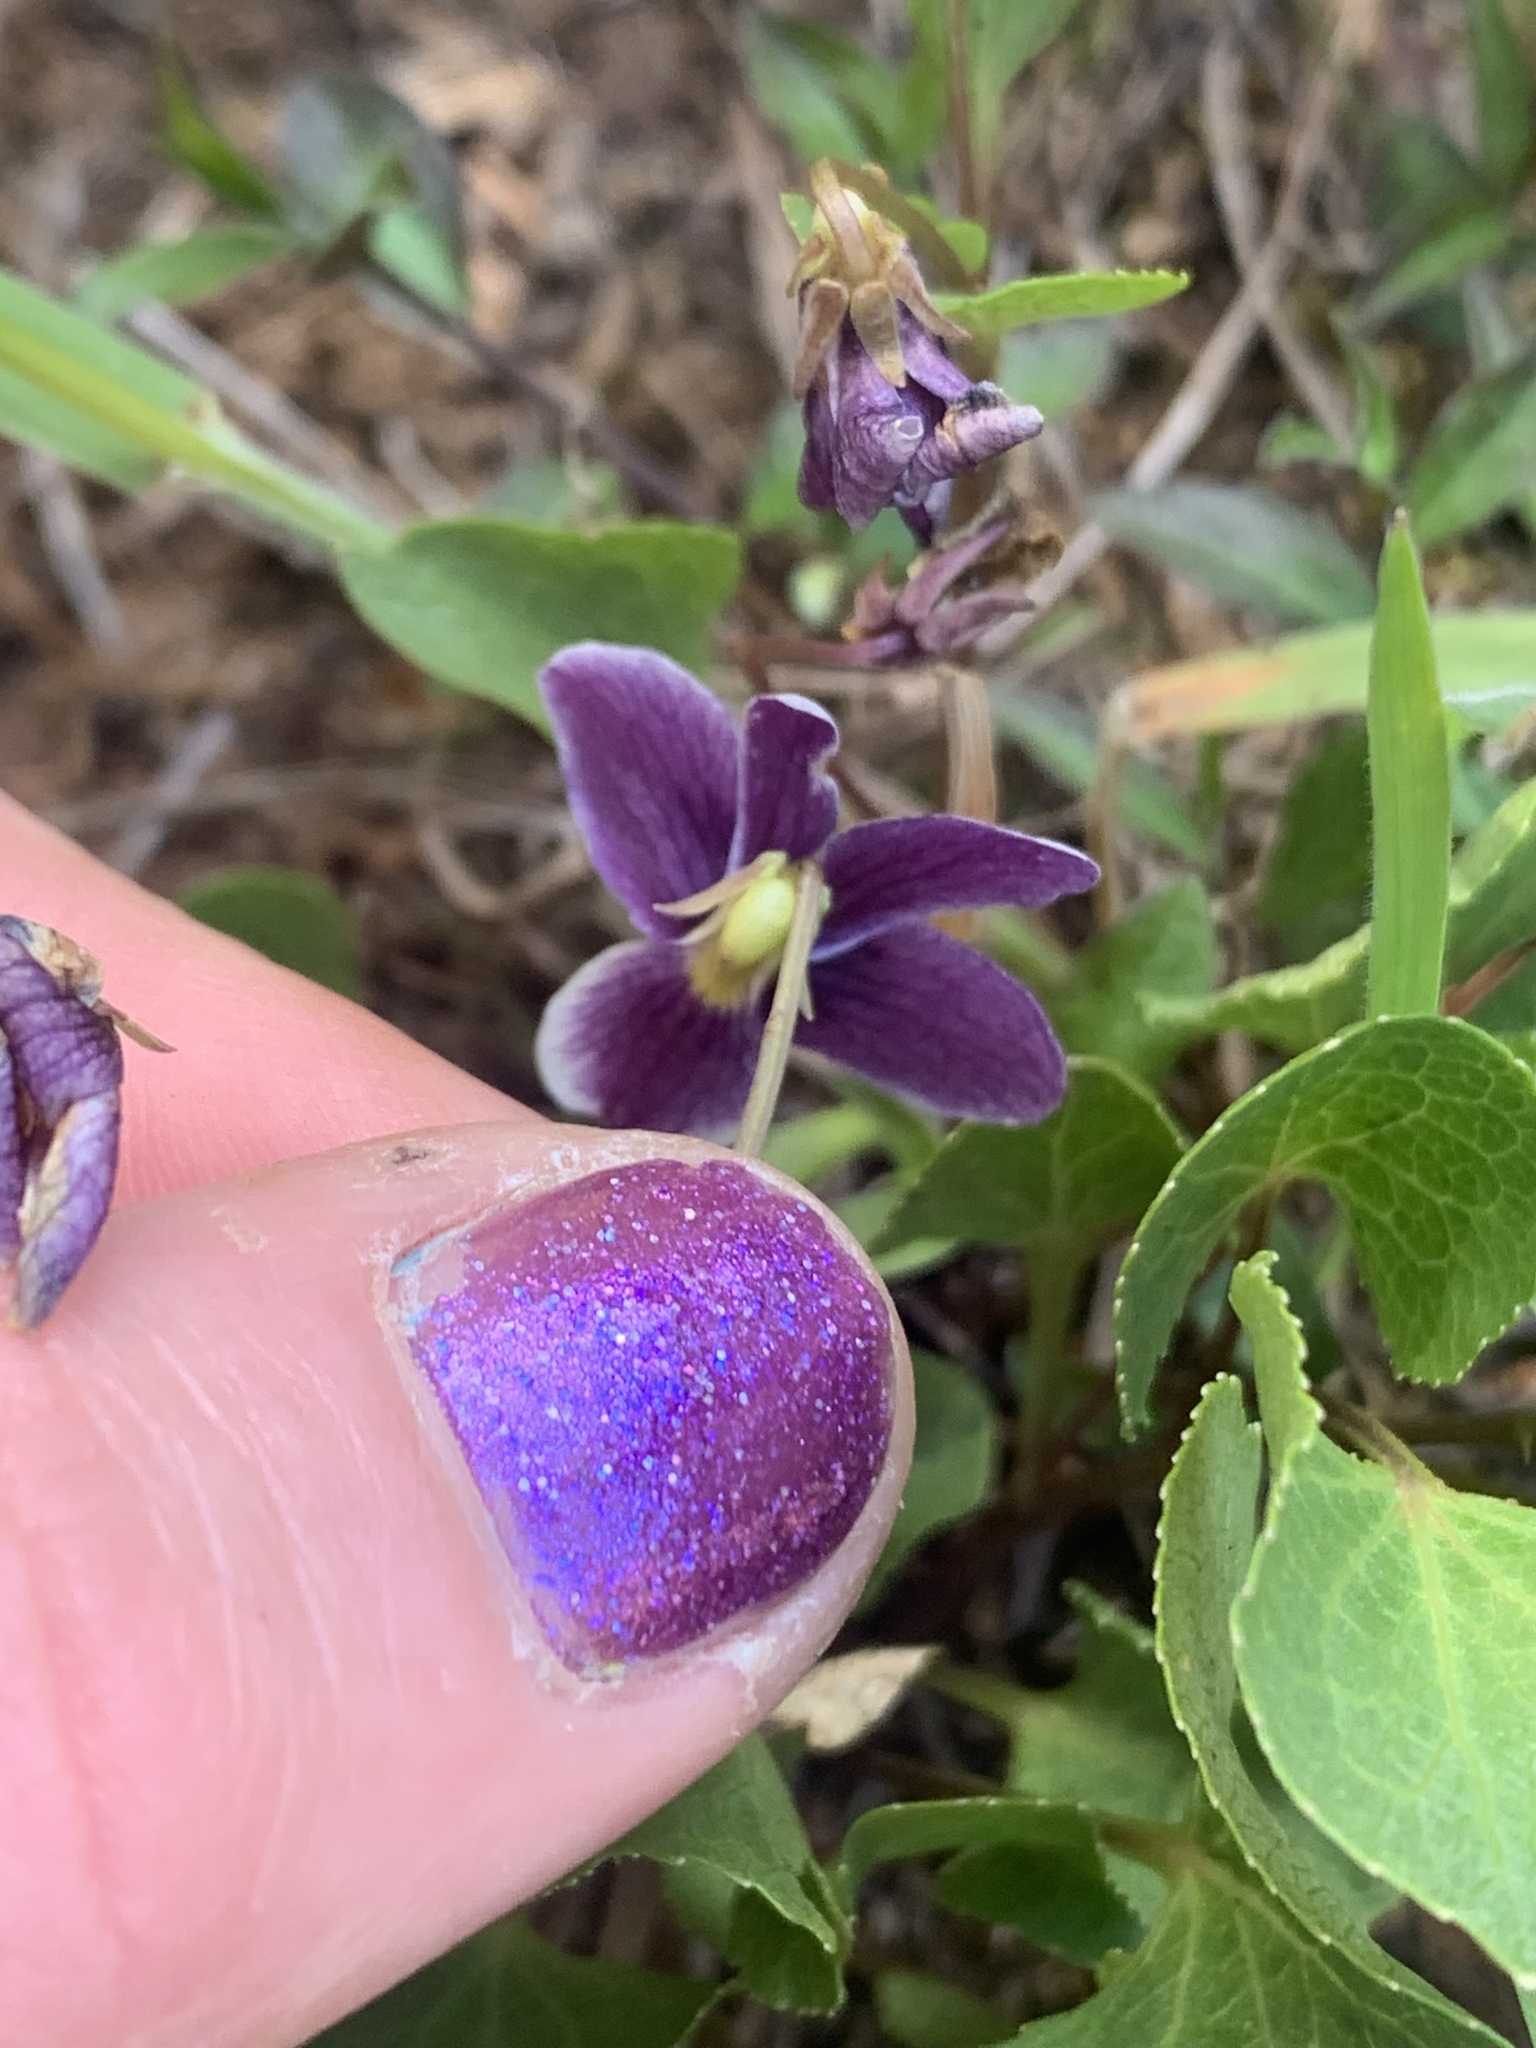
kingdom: Plantae
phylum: Tracheophyta
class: Magnoliopsida
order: Malpighiales
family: Violaceae
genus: Viola
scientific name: Viola cuneata
